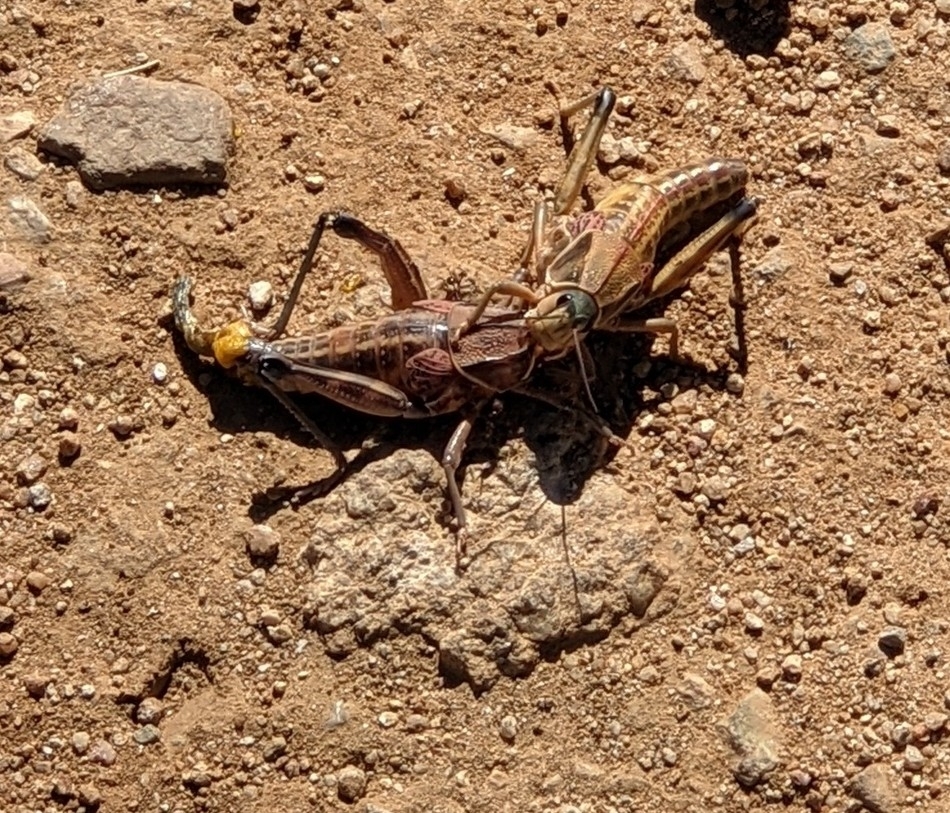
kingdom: Animalia
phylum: Arthropoda
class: Insecta
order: Orthoptera
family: Romaleidae
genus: Brachystola
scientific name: Brachystola magna
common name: Plains lubber grasshopper
